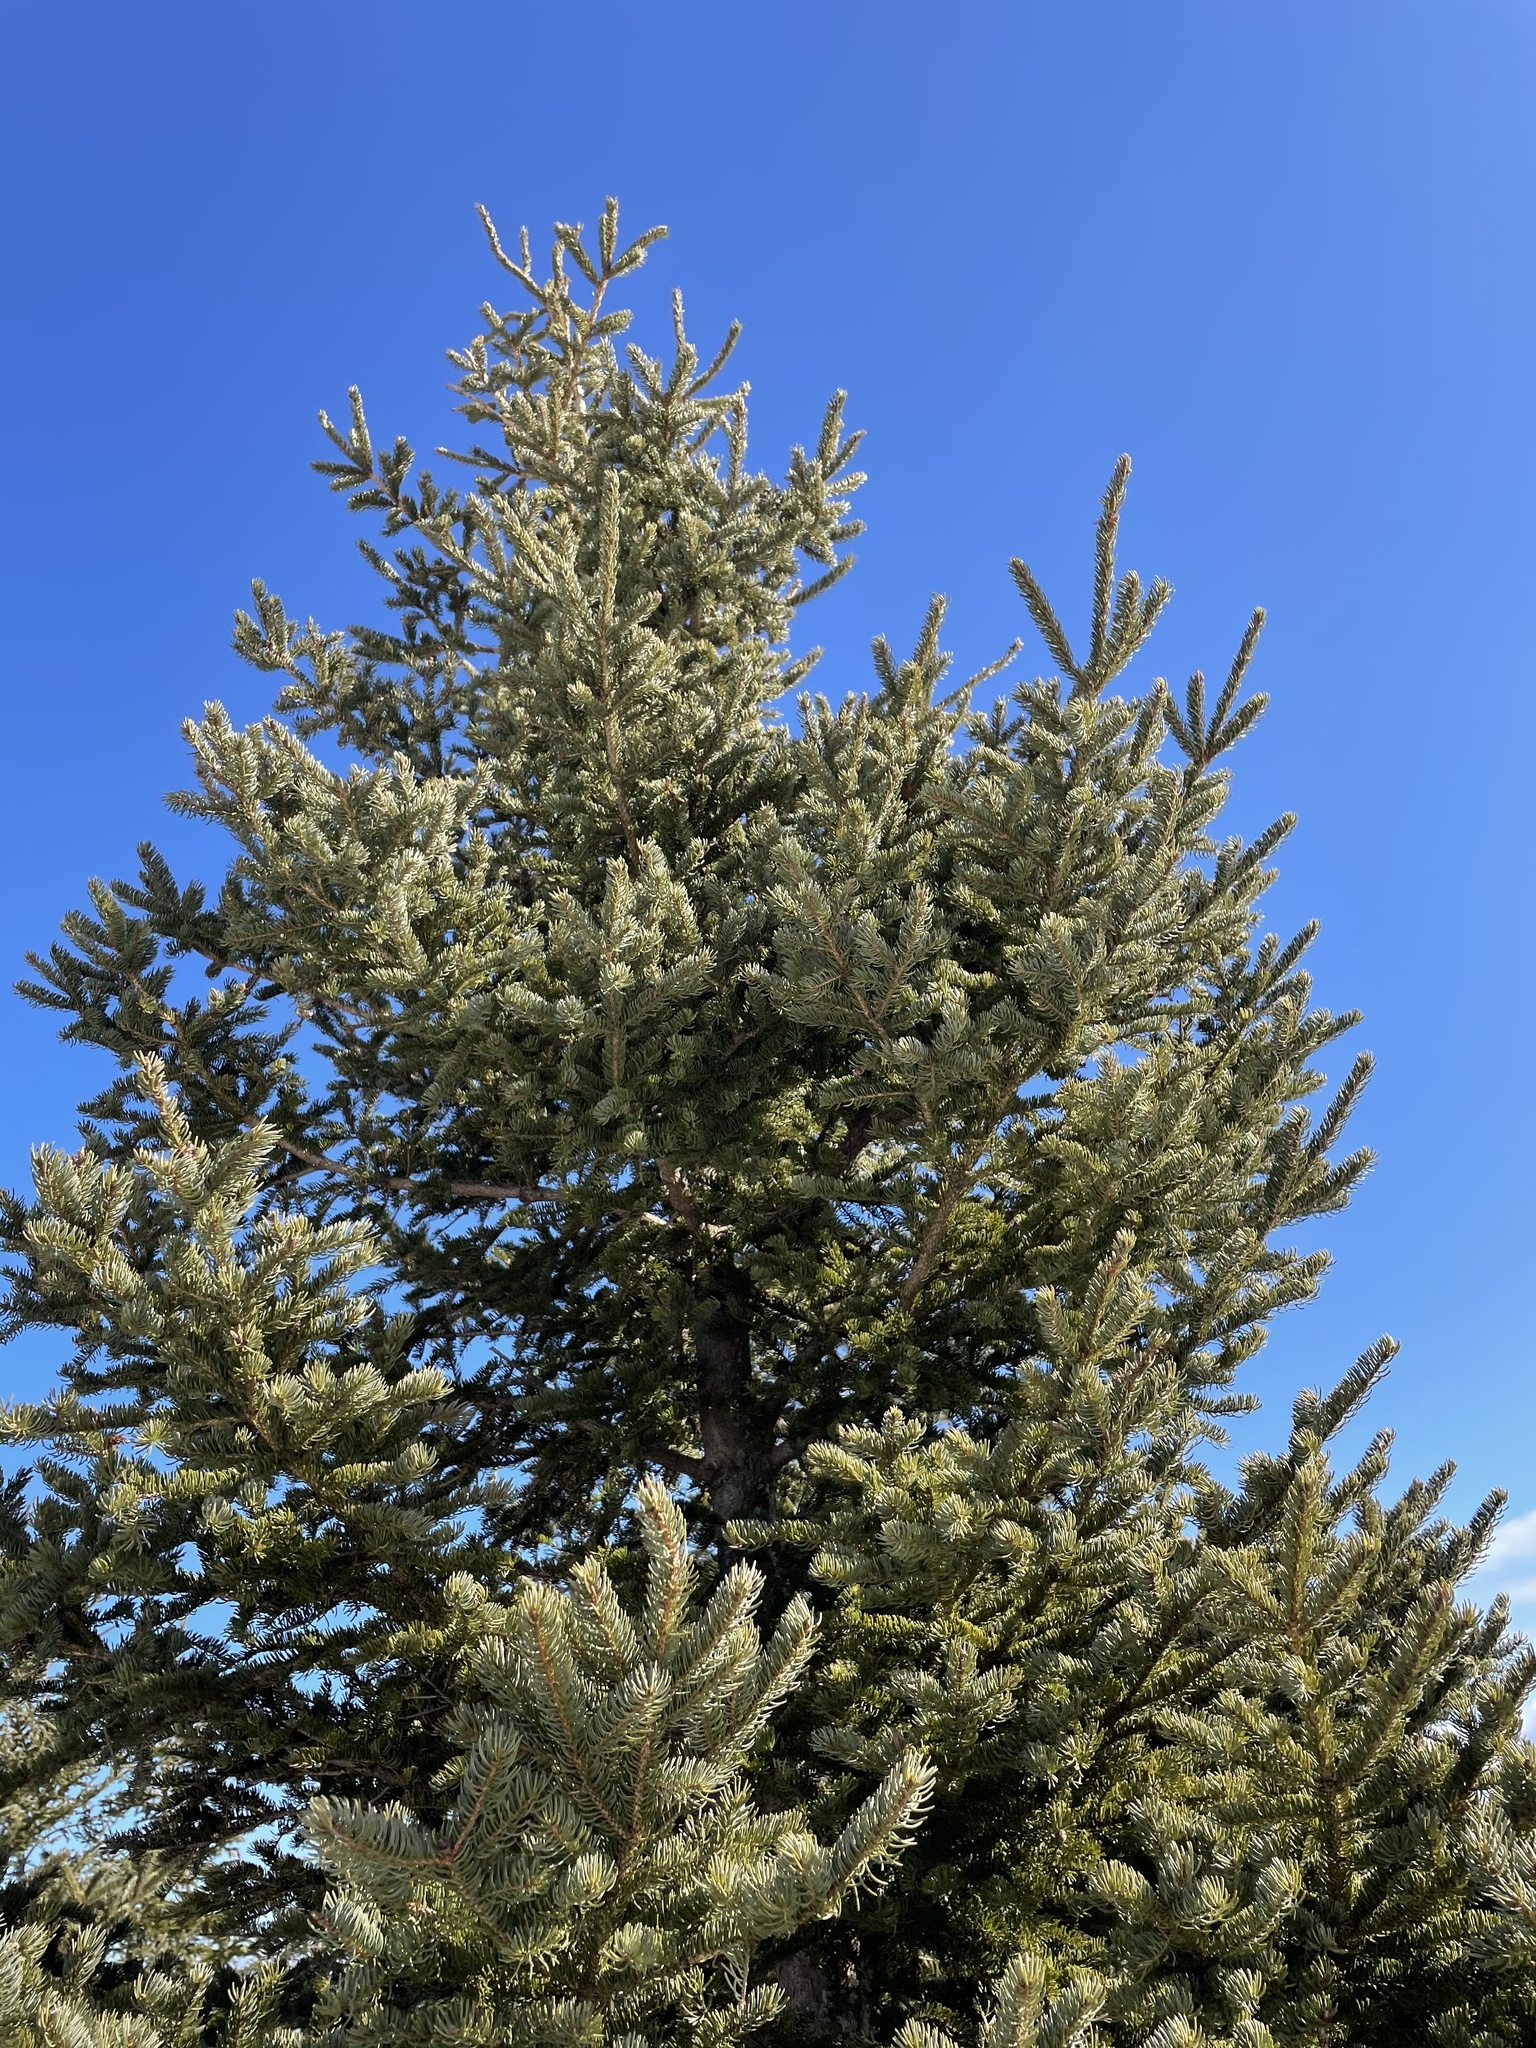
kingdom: Plantae
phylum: Tracheophyta
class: Pinopsida
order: Pinales
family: Pinaceae
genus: Picea
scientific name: Picea glauca
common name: White spruce
